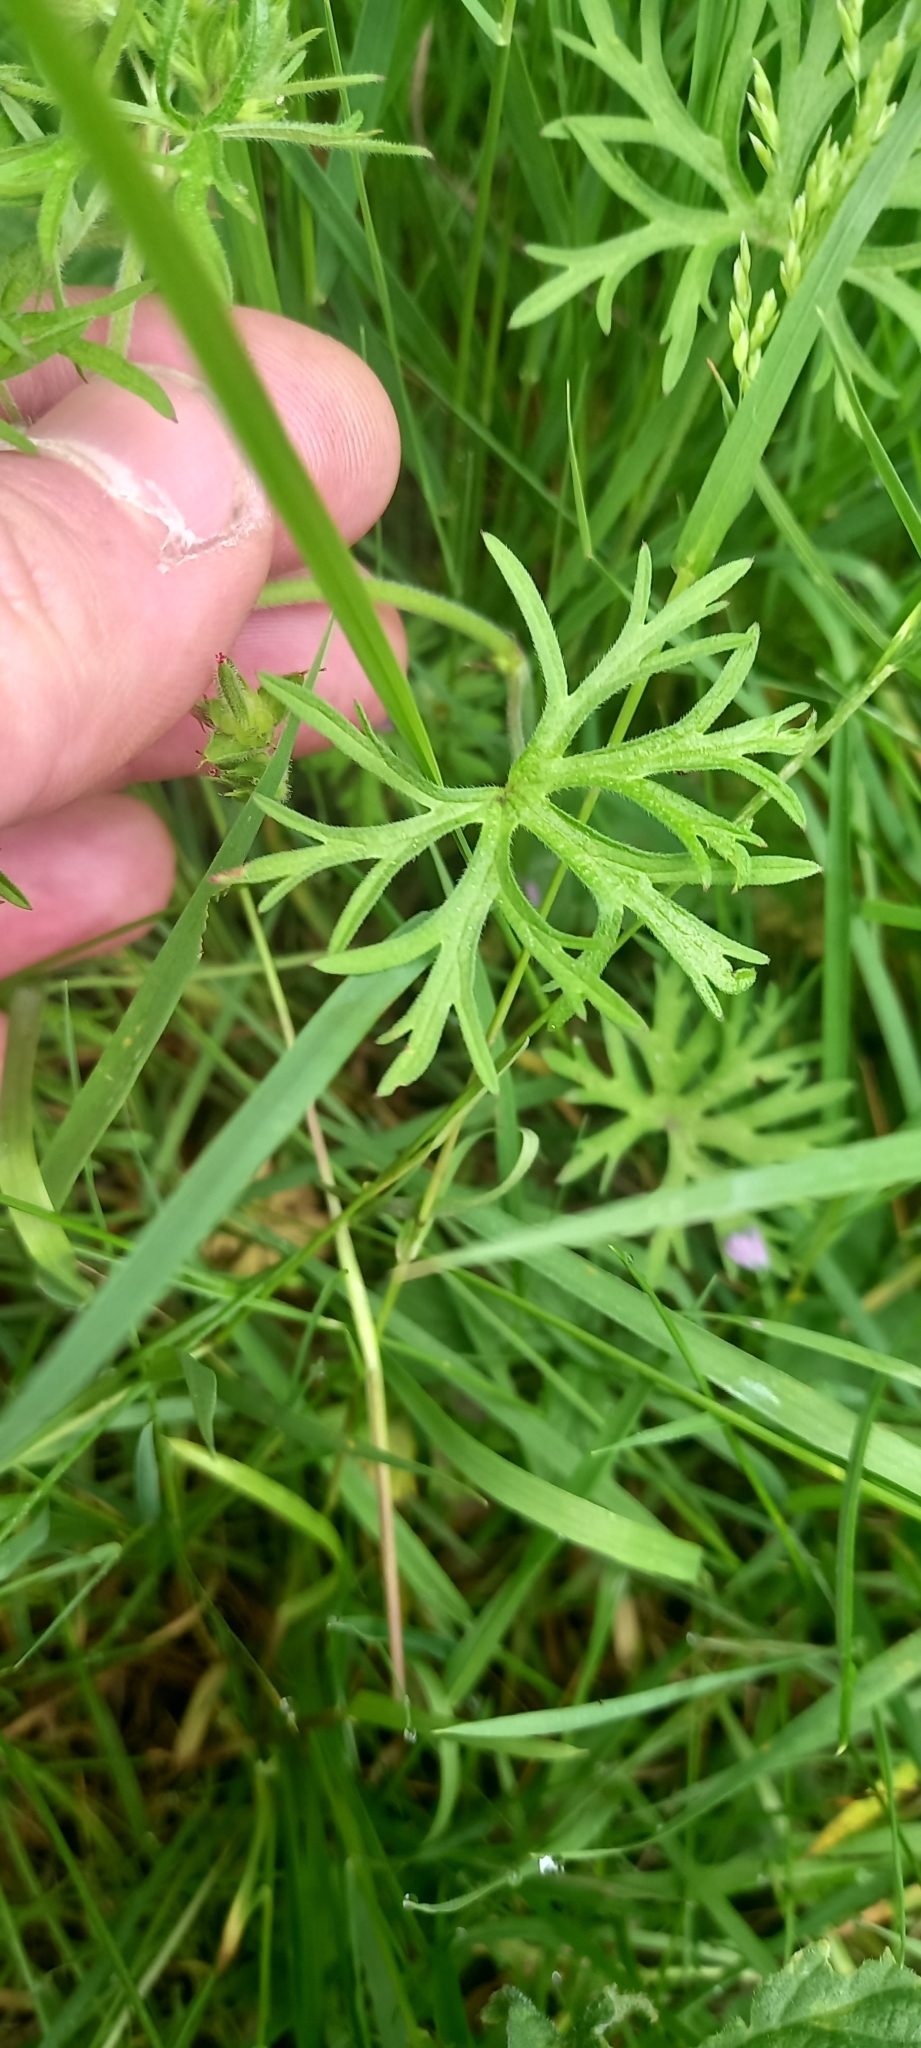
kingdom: Plantae
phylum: Tracheophyta
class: Magnoliopsida
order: Geraniales
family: Geraniaceae
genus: Geranium
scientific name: Geranium dissectum
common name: Cut-leaved crane's-bill
